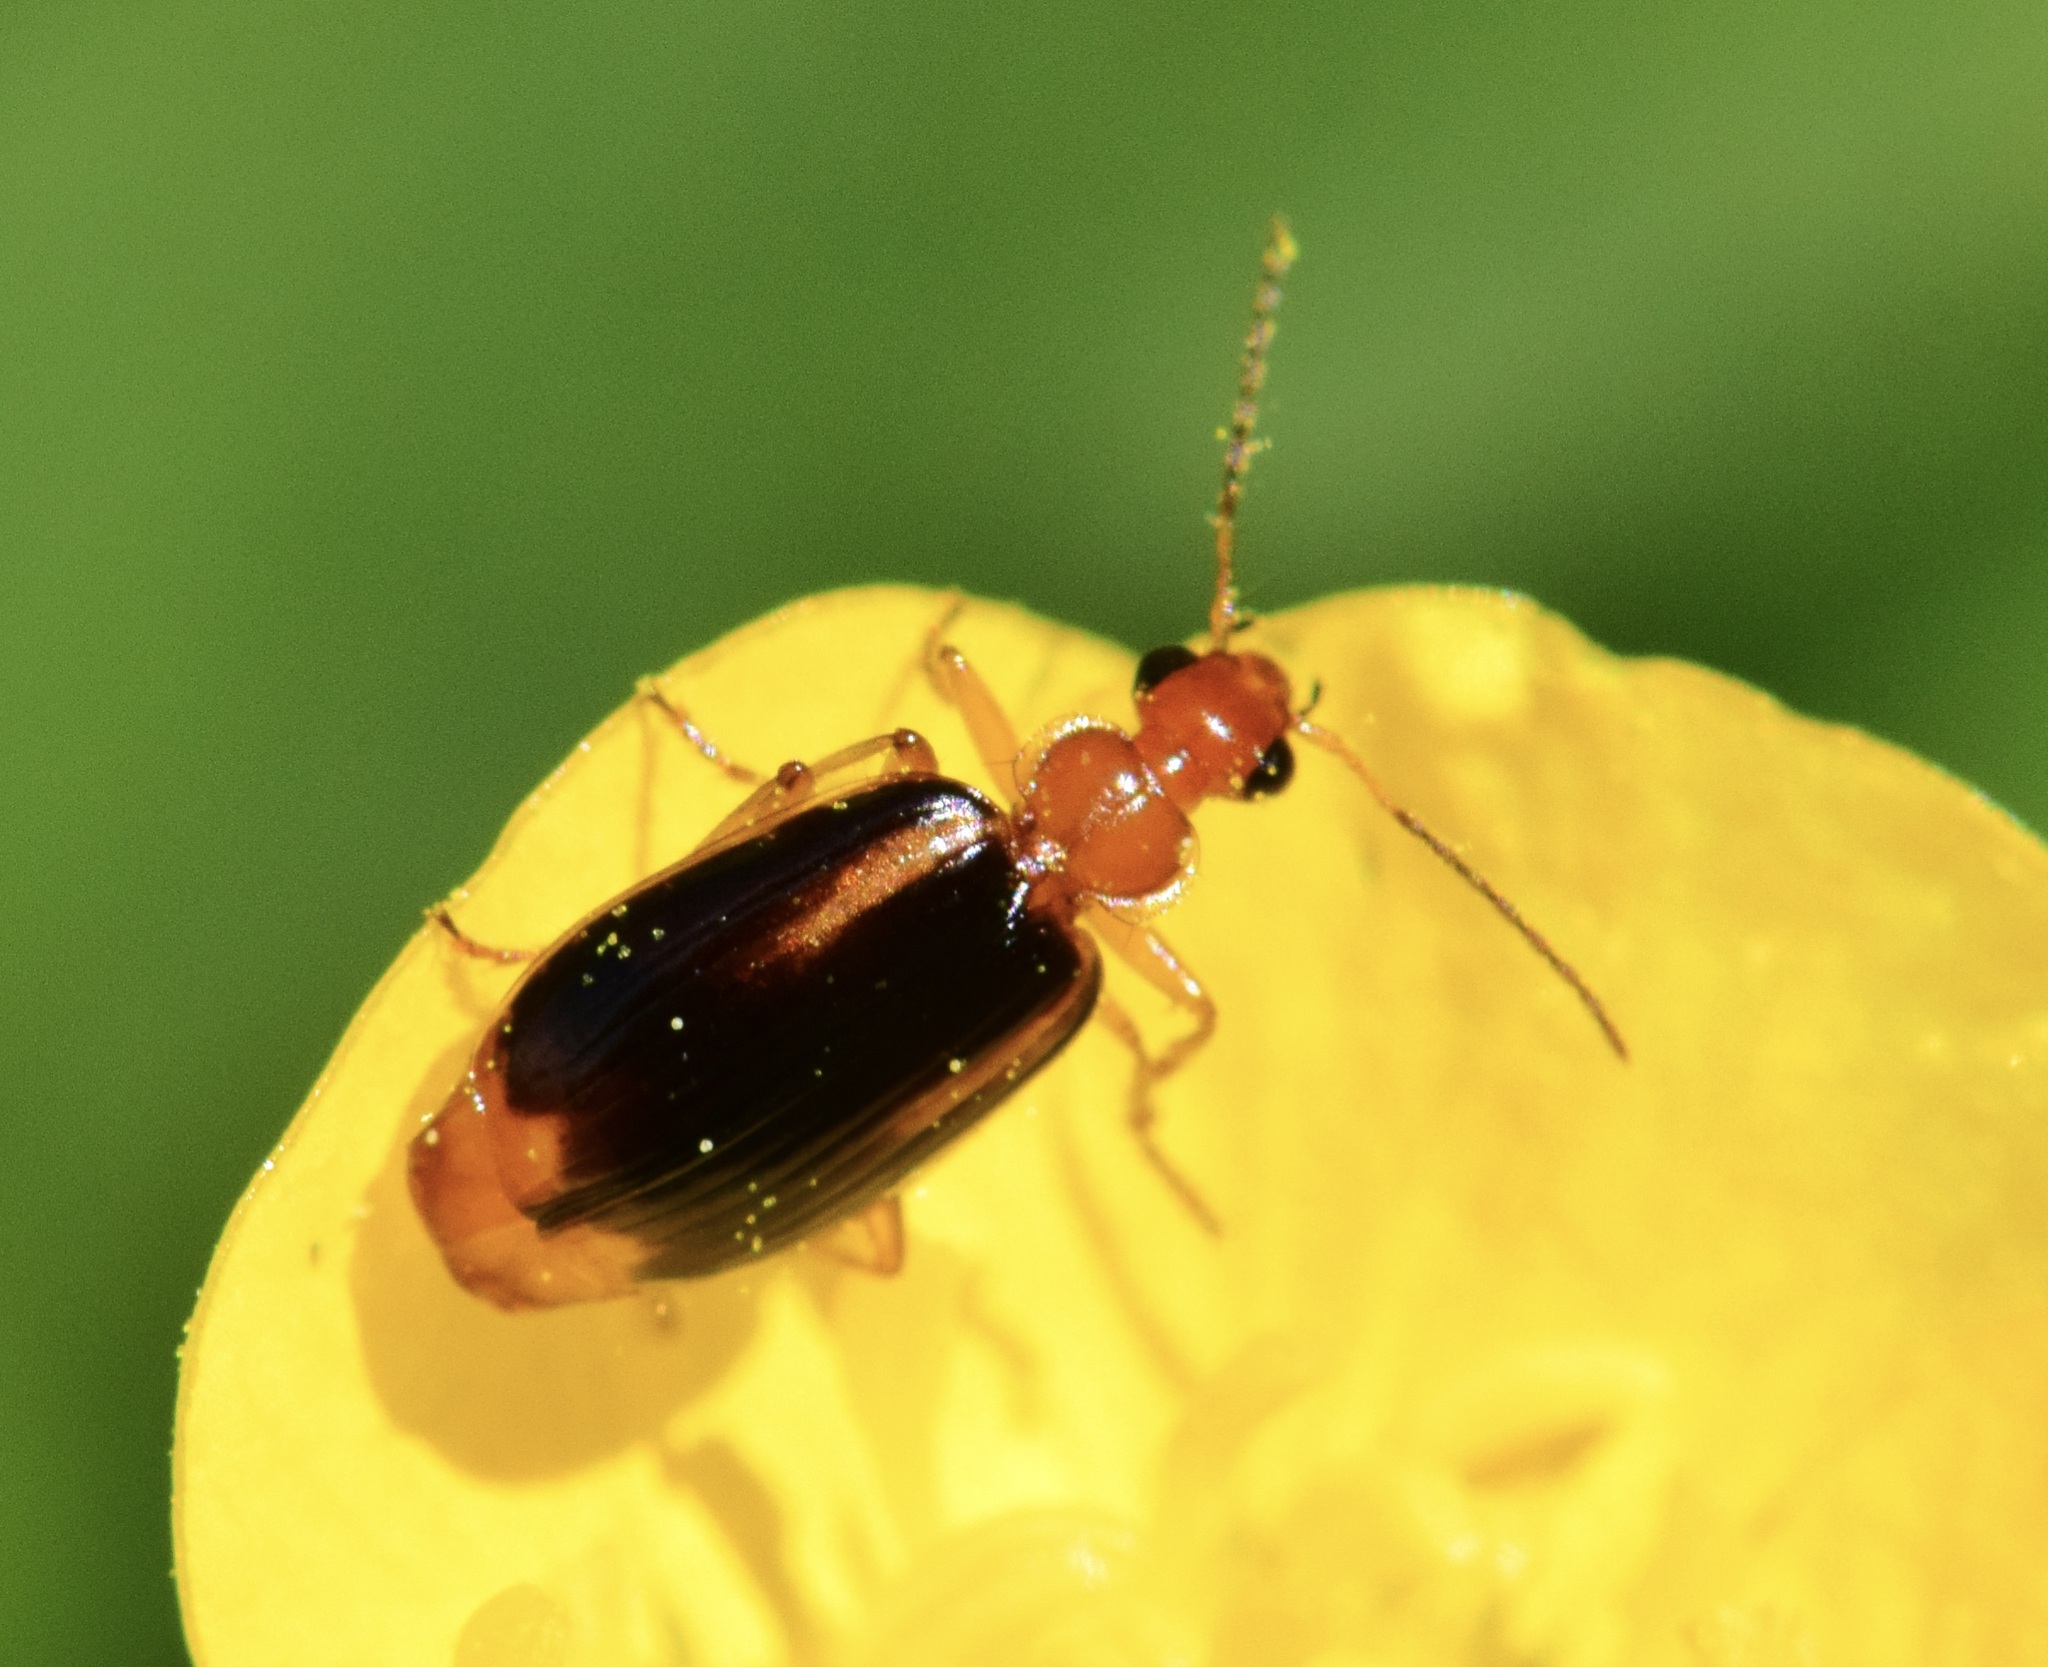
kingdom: Animalia
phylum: Arthropoda
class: Insecta
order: Coleoptera
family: Carabidae
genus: Lebia
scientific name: Lebia solea
